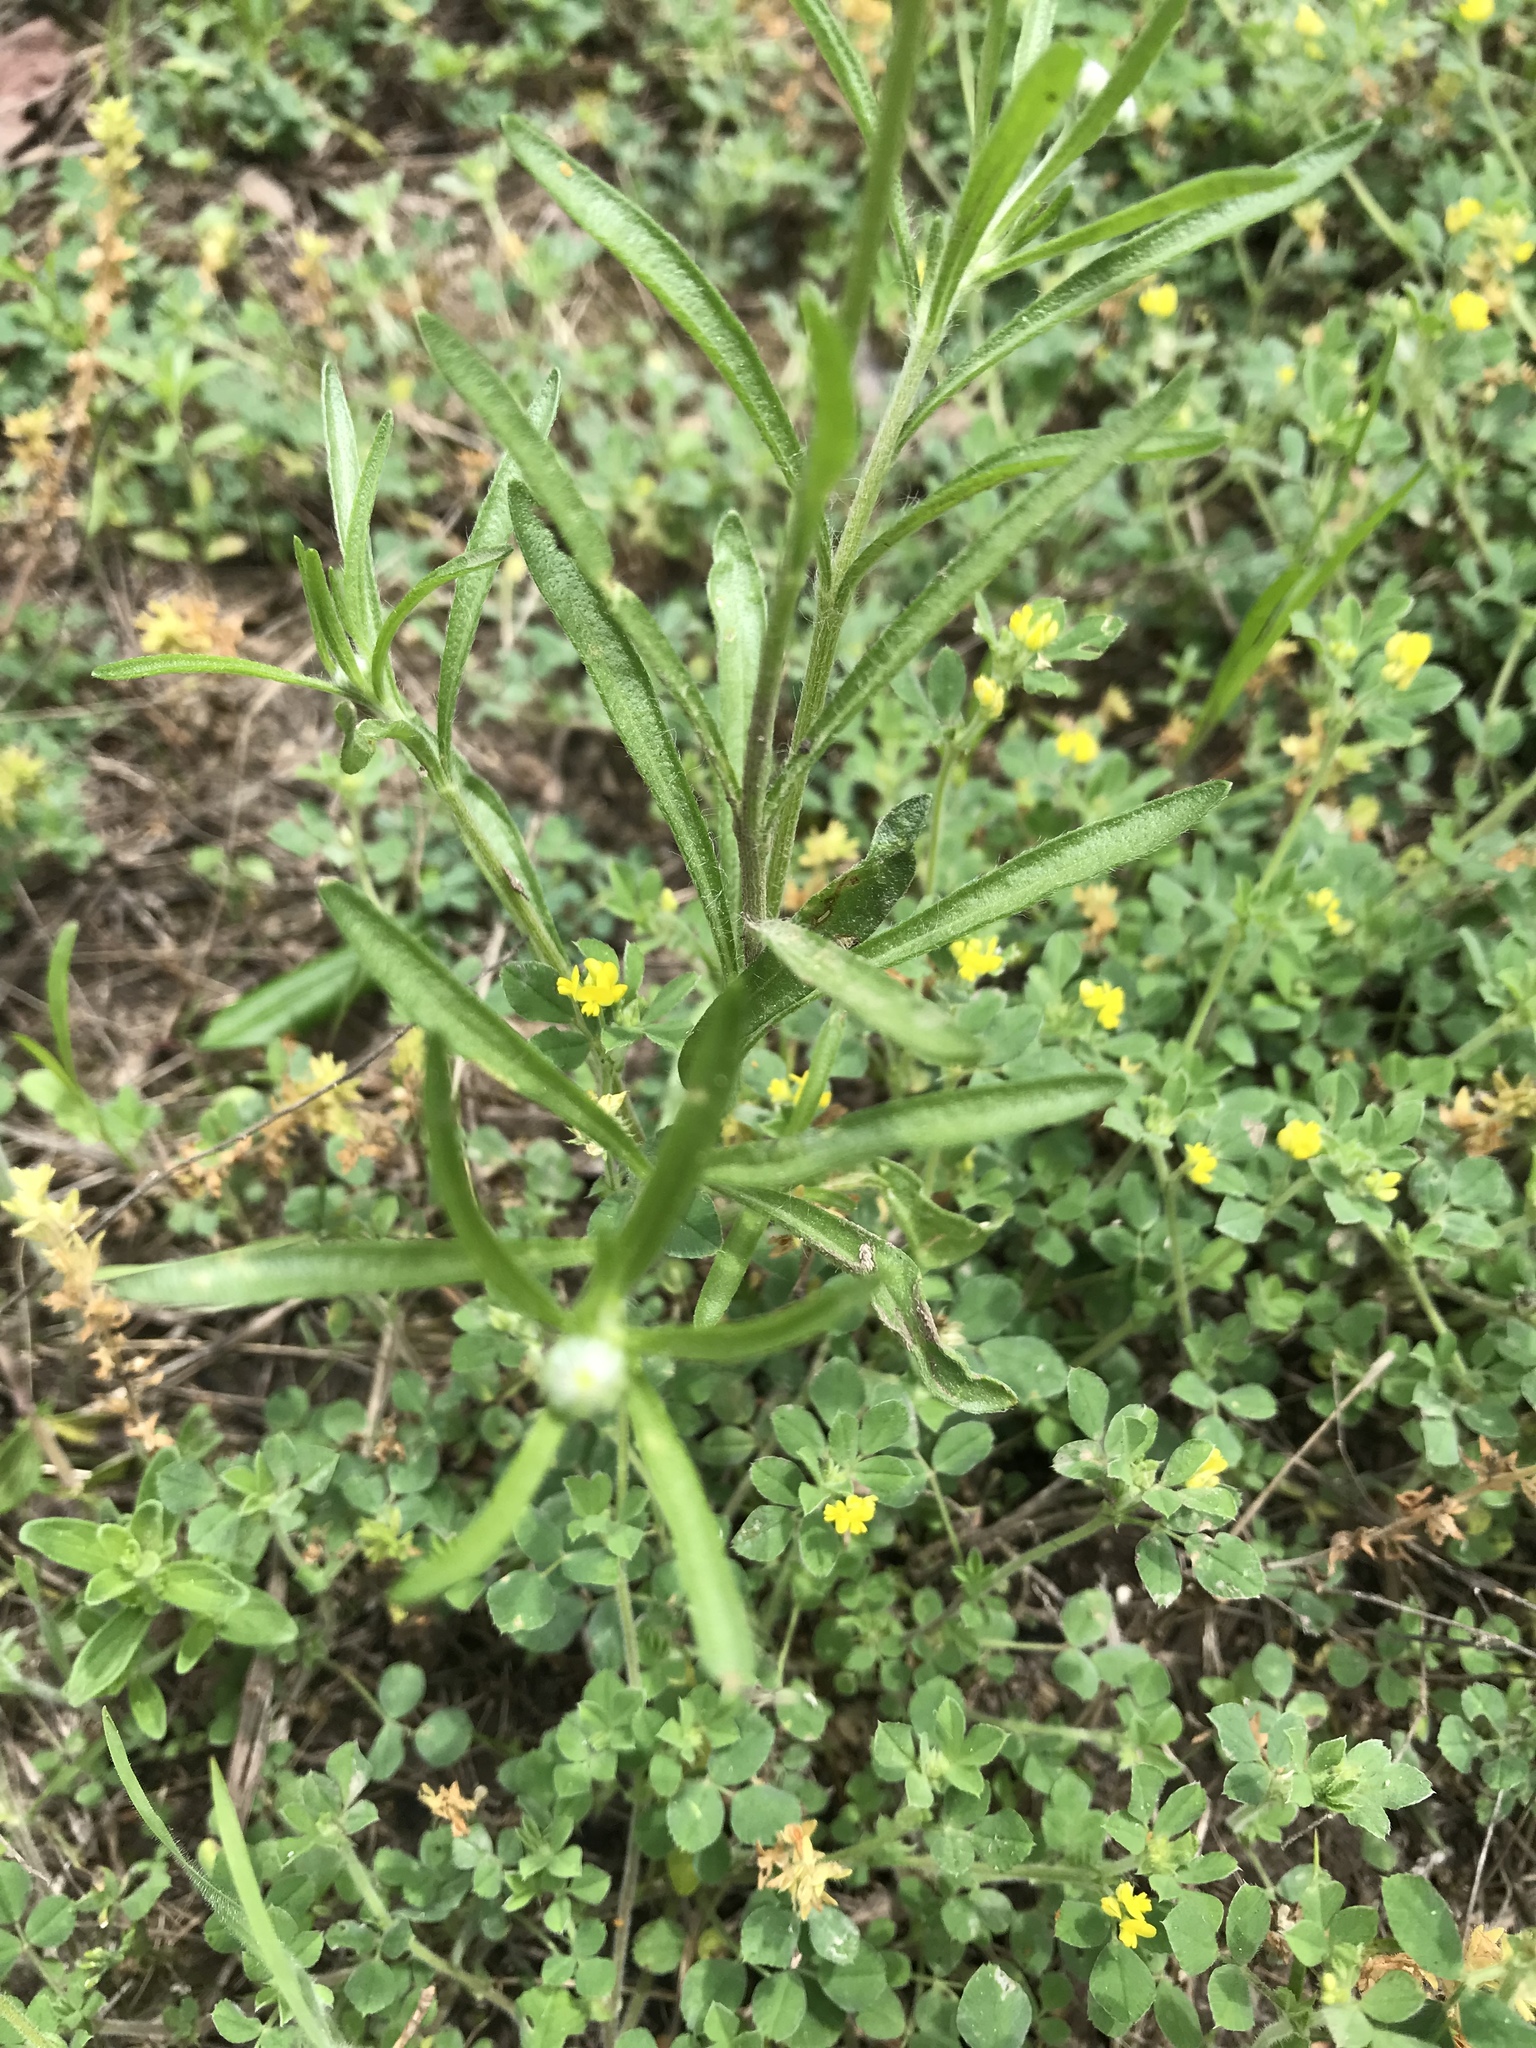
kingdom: Plantae
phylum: Tracheophyta
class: Magnoliopsida
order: Asterales
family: Asteraceae
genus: Tetraneuris
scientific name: Tetraneuris scaposa
